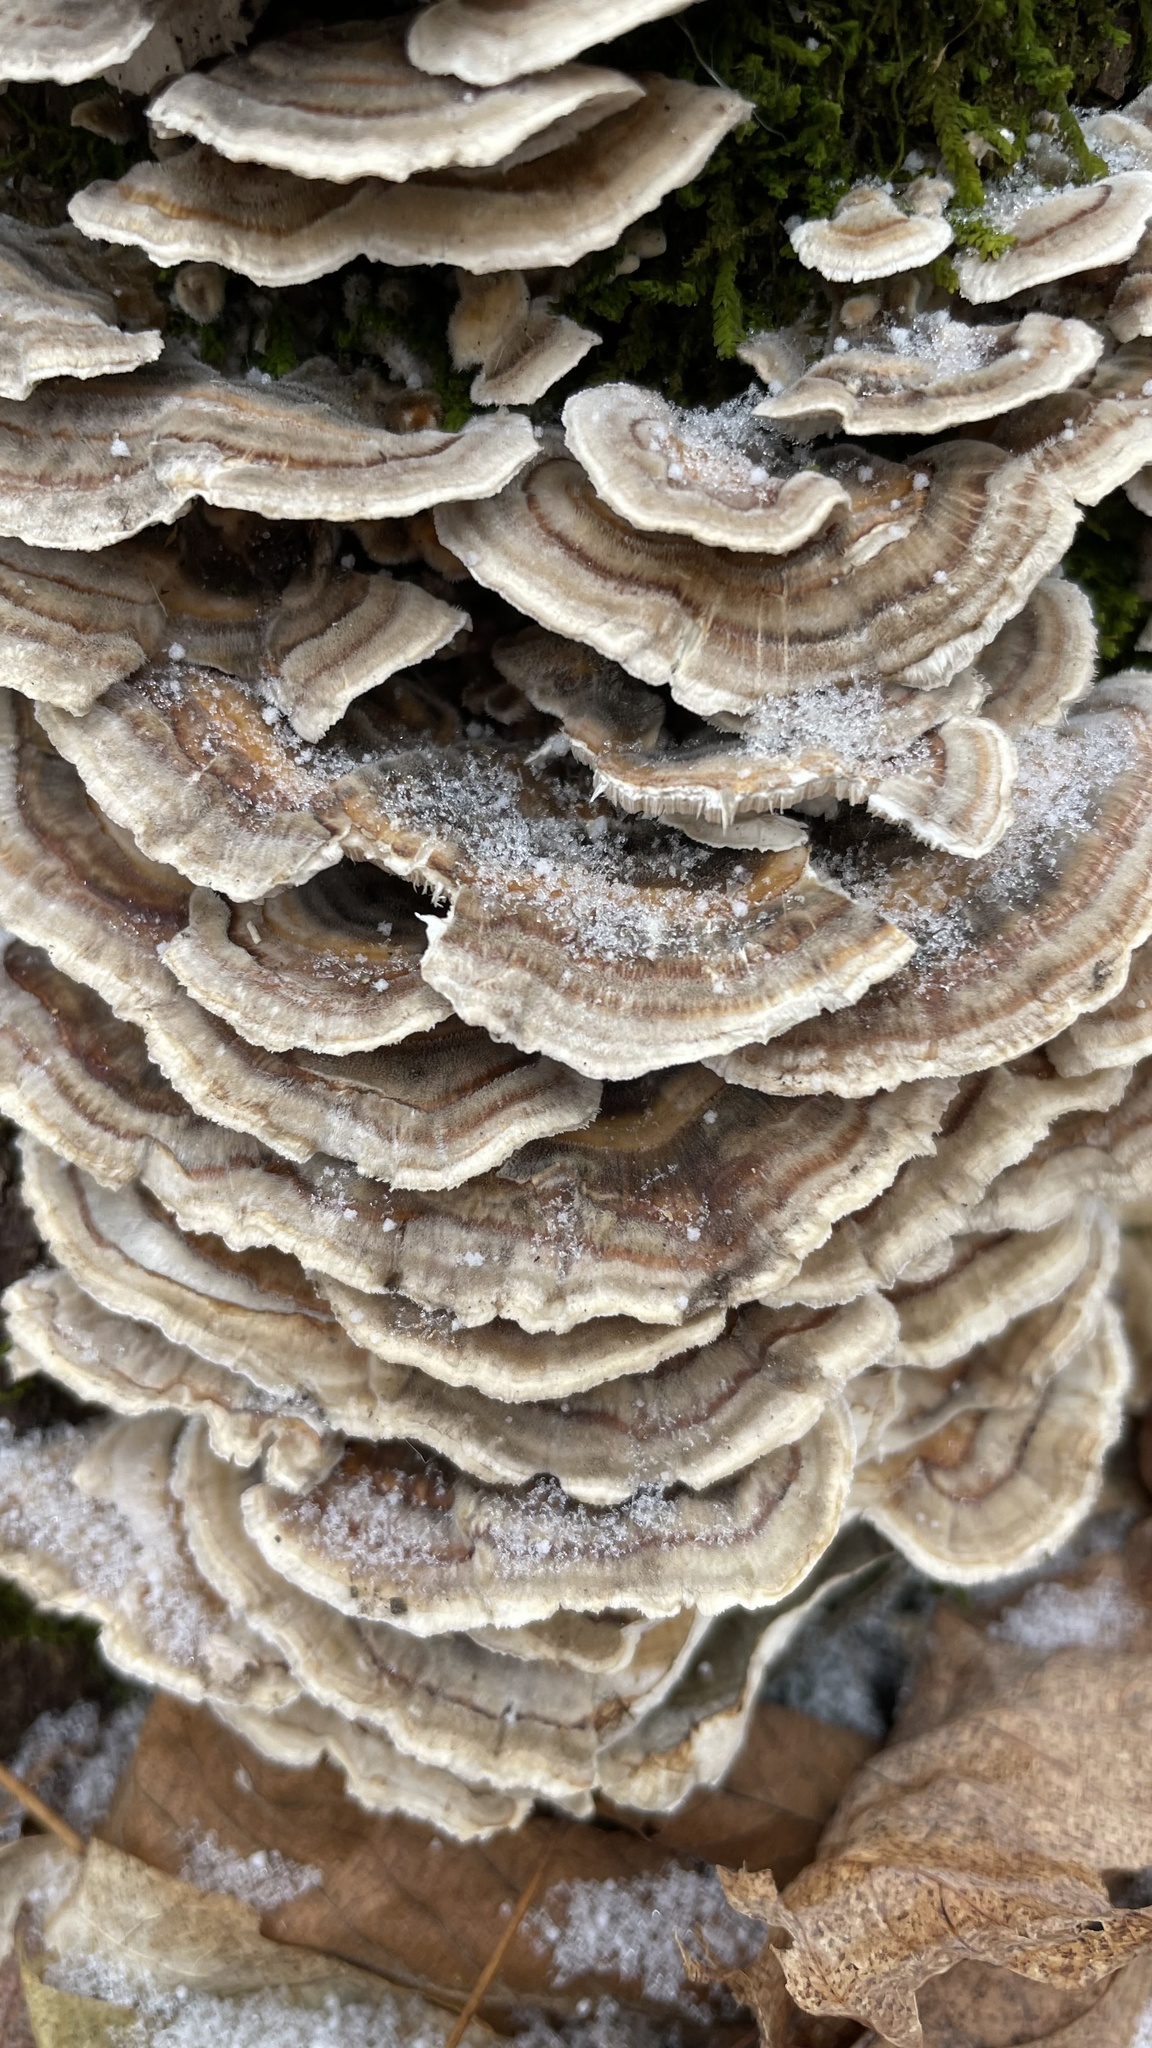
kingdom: Fungi
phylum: Basidiomycota
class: Agaricomycetes
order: Polyporales
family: Polyporaceae
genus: Trametes
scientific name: Trametes versicolor
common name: Turkeytail
